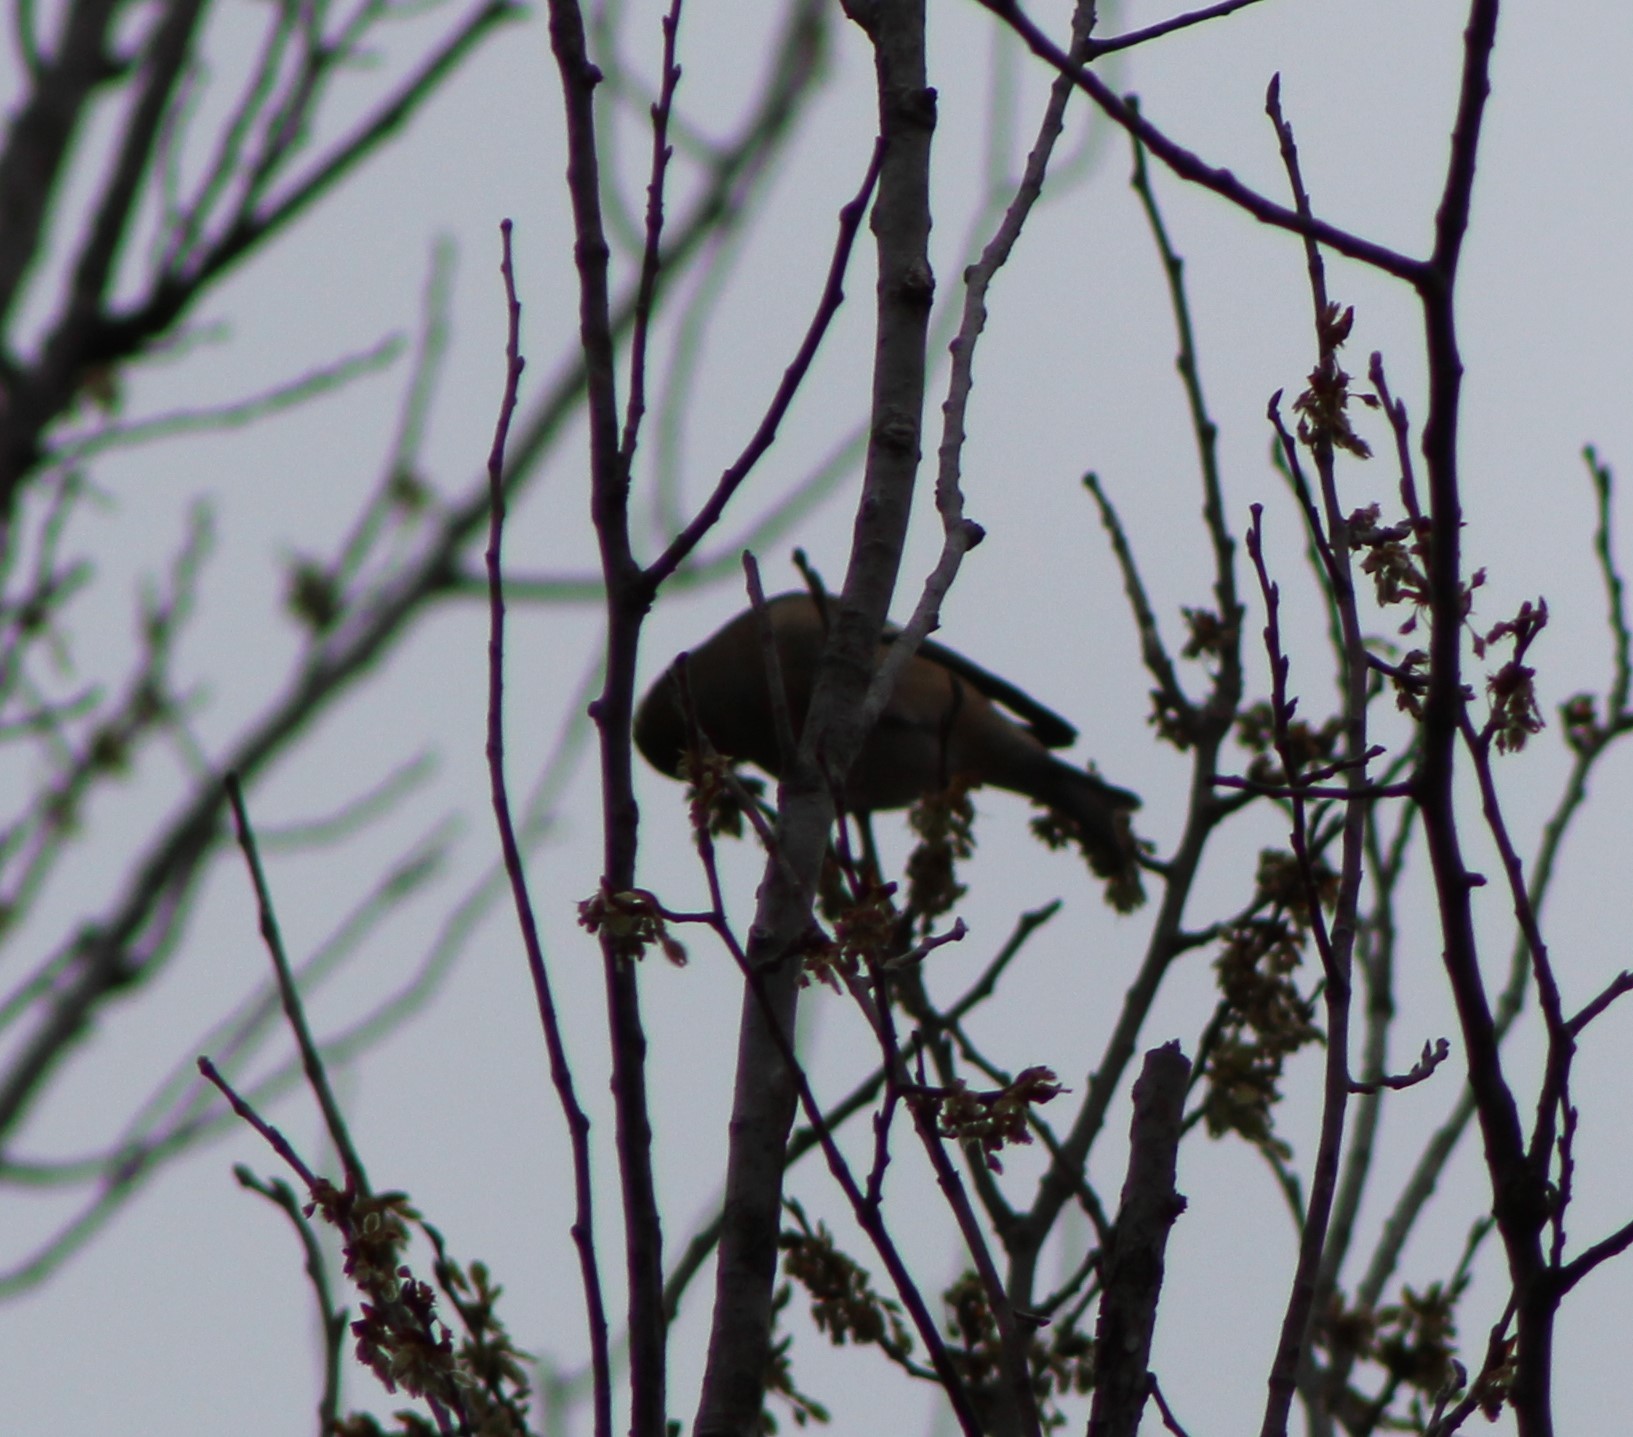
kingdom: Animalia
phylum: Chordata
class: Aves
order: Passeriformes
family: Fringillidae
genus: Spinus
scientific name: Spinus tristis
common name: American goldfinch
